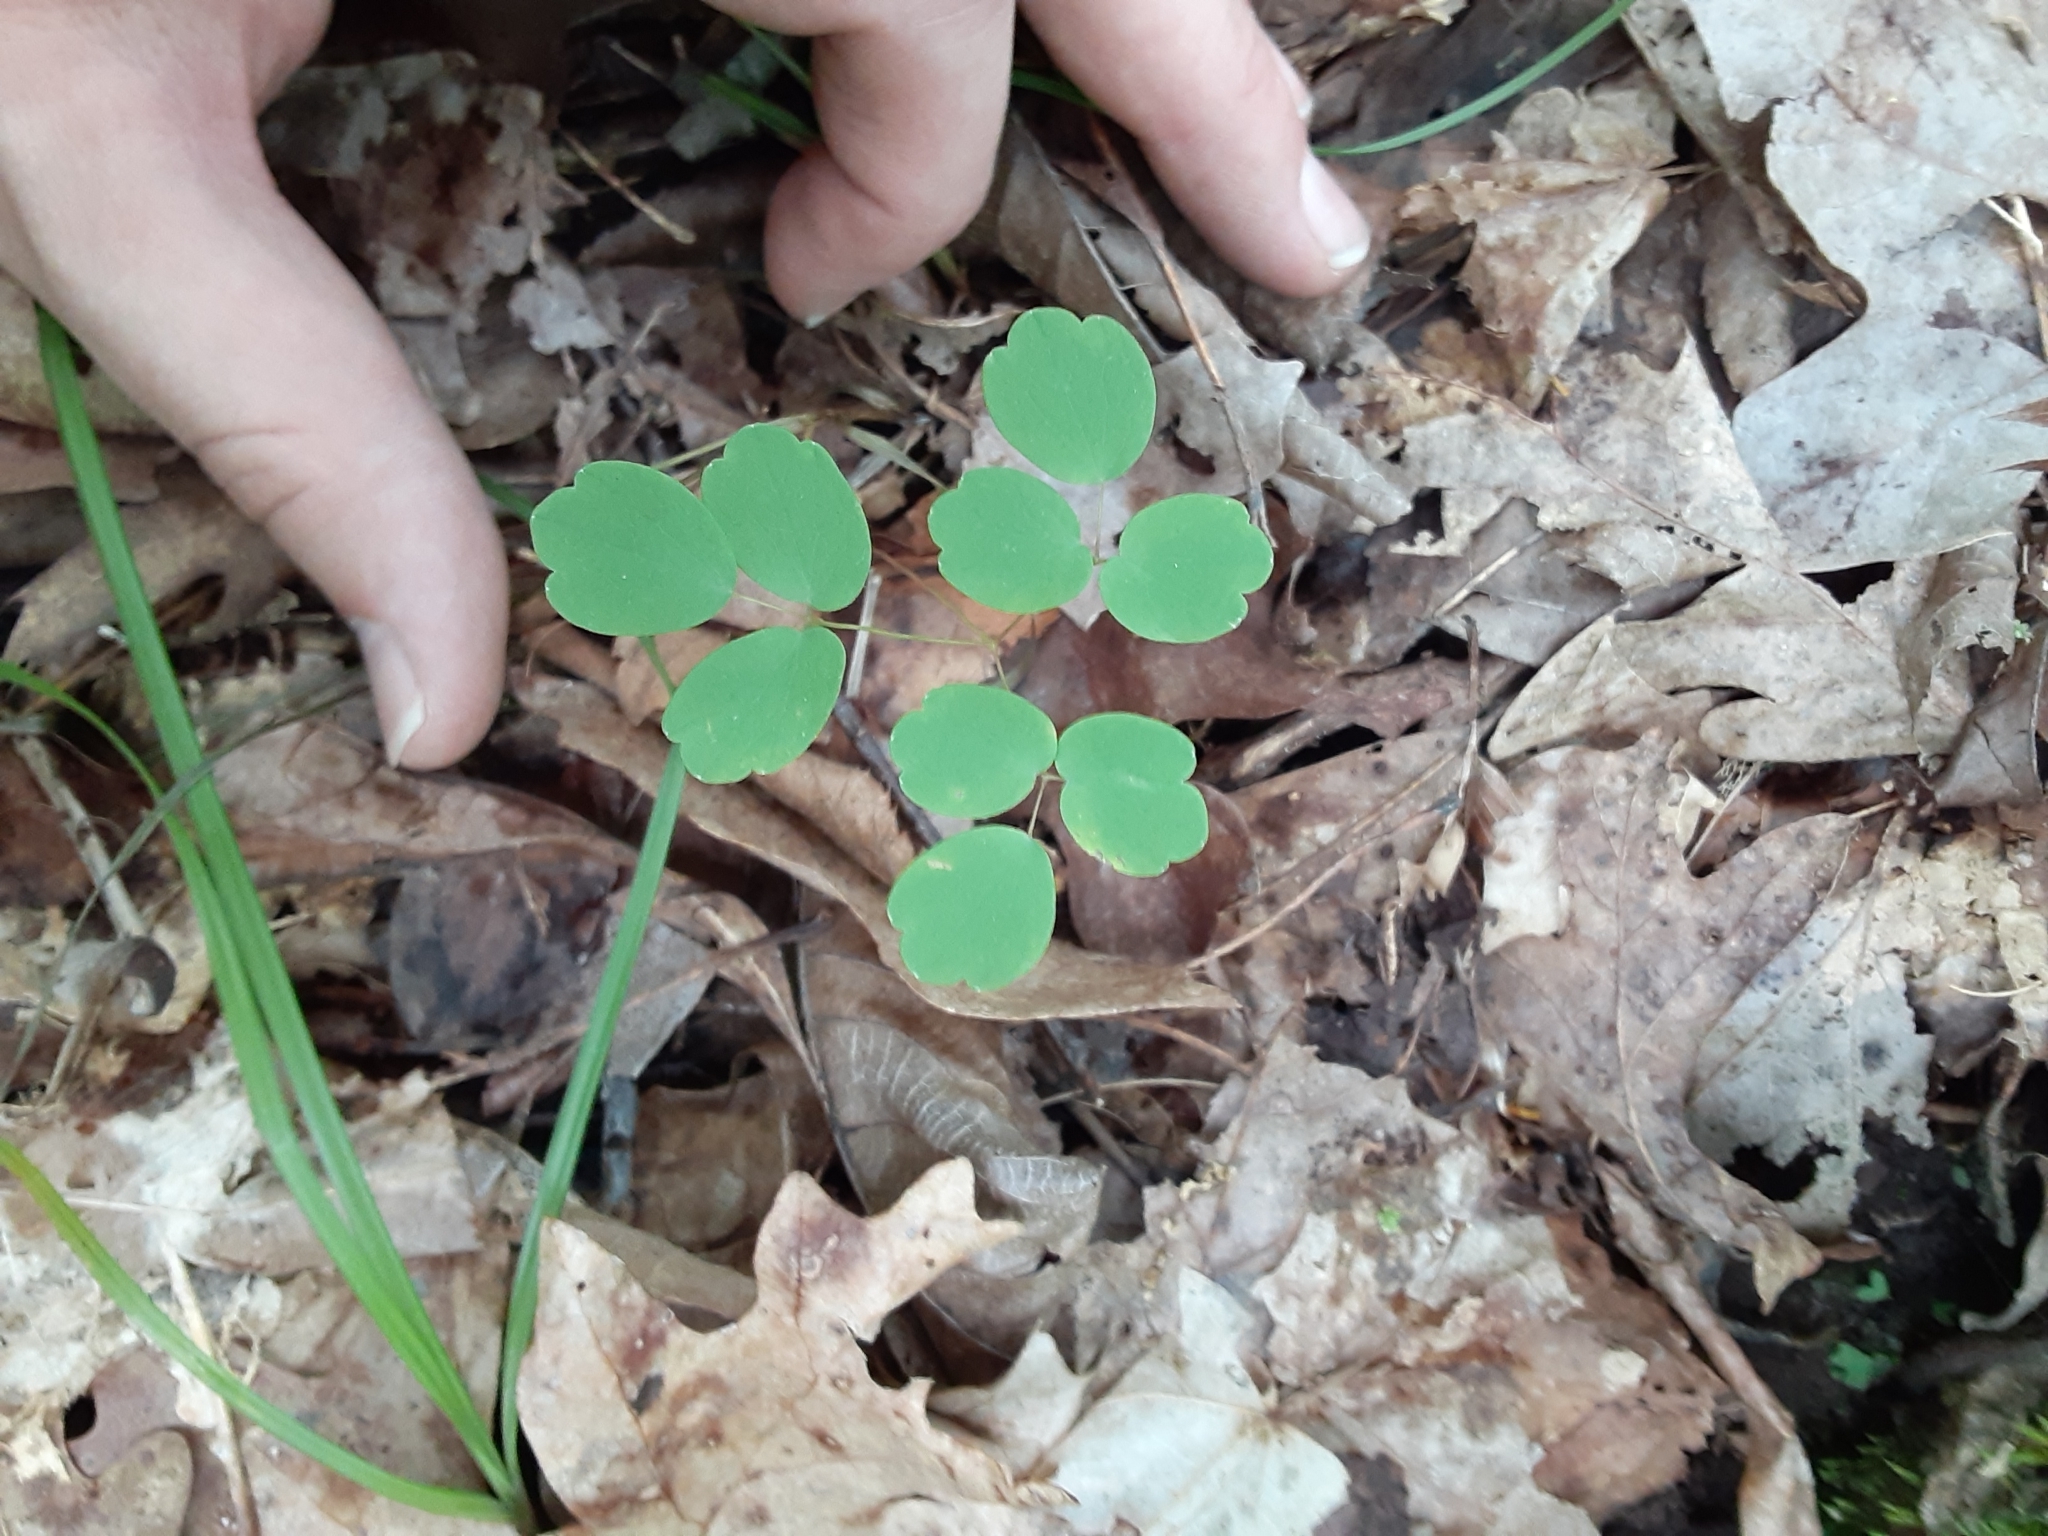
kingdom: Plantae
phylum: Tracheophyta
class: Magnoliopsida
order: Ranunculales
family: Ranunculaceae
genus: Thalictrum
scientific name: Thalictrum thalictroides
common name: Rue-anemone
